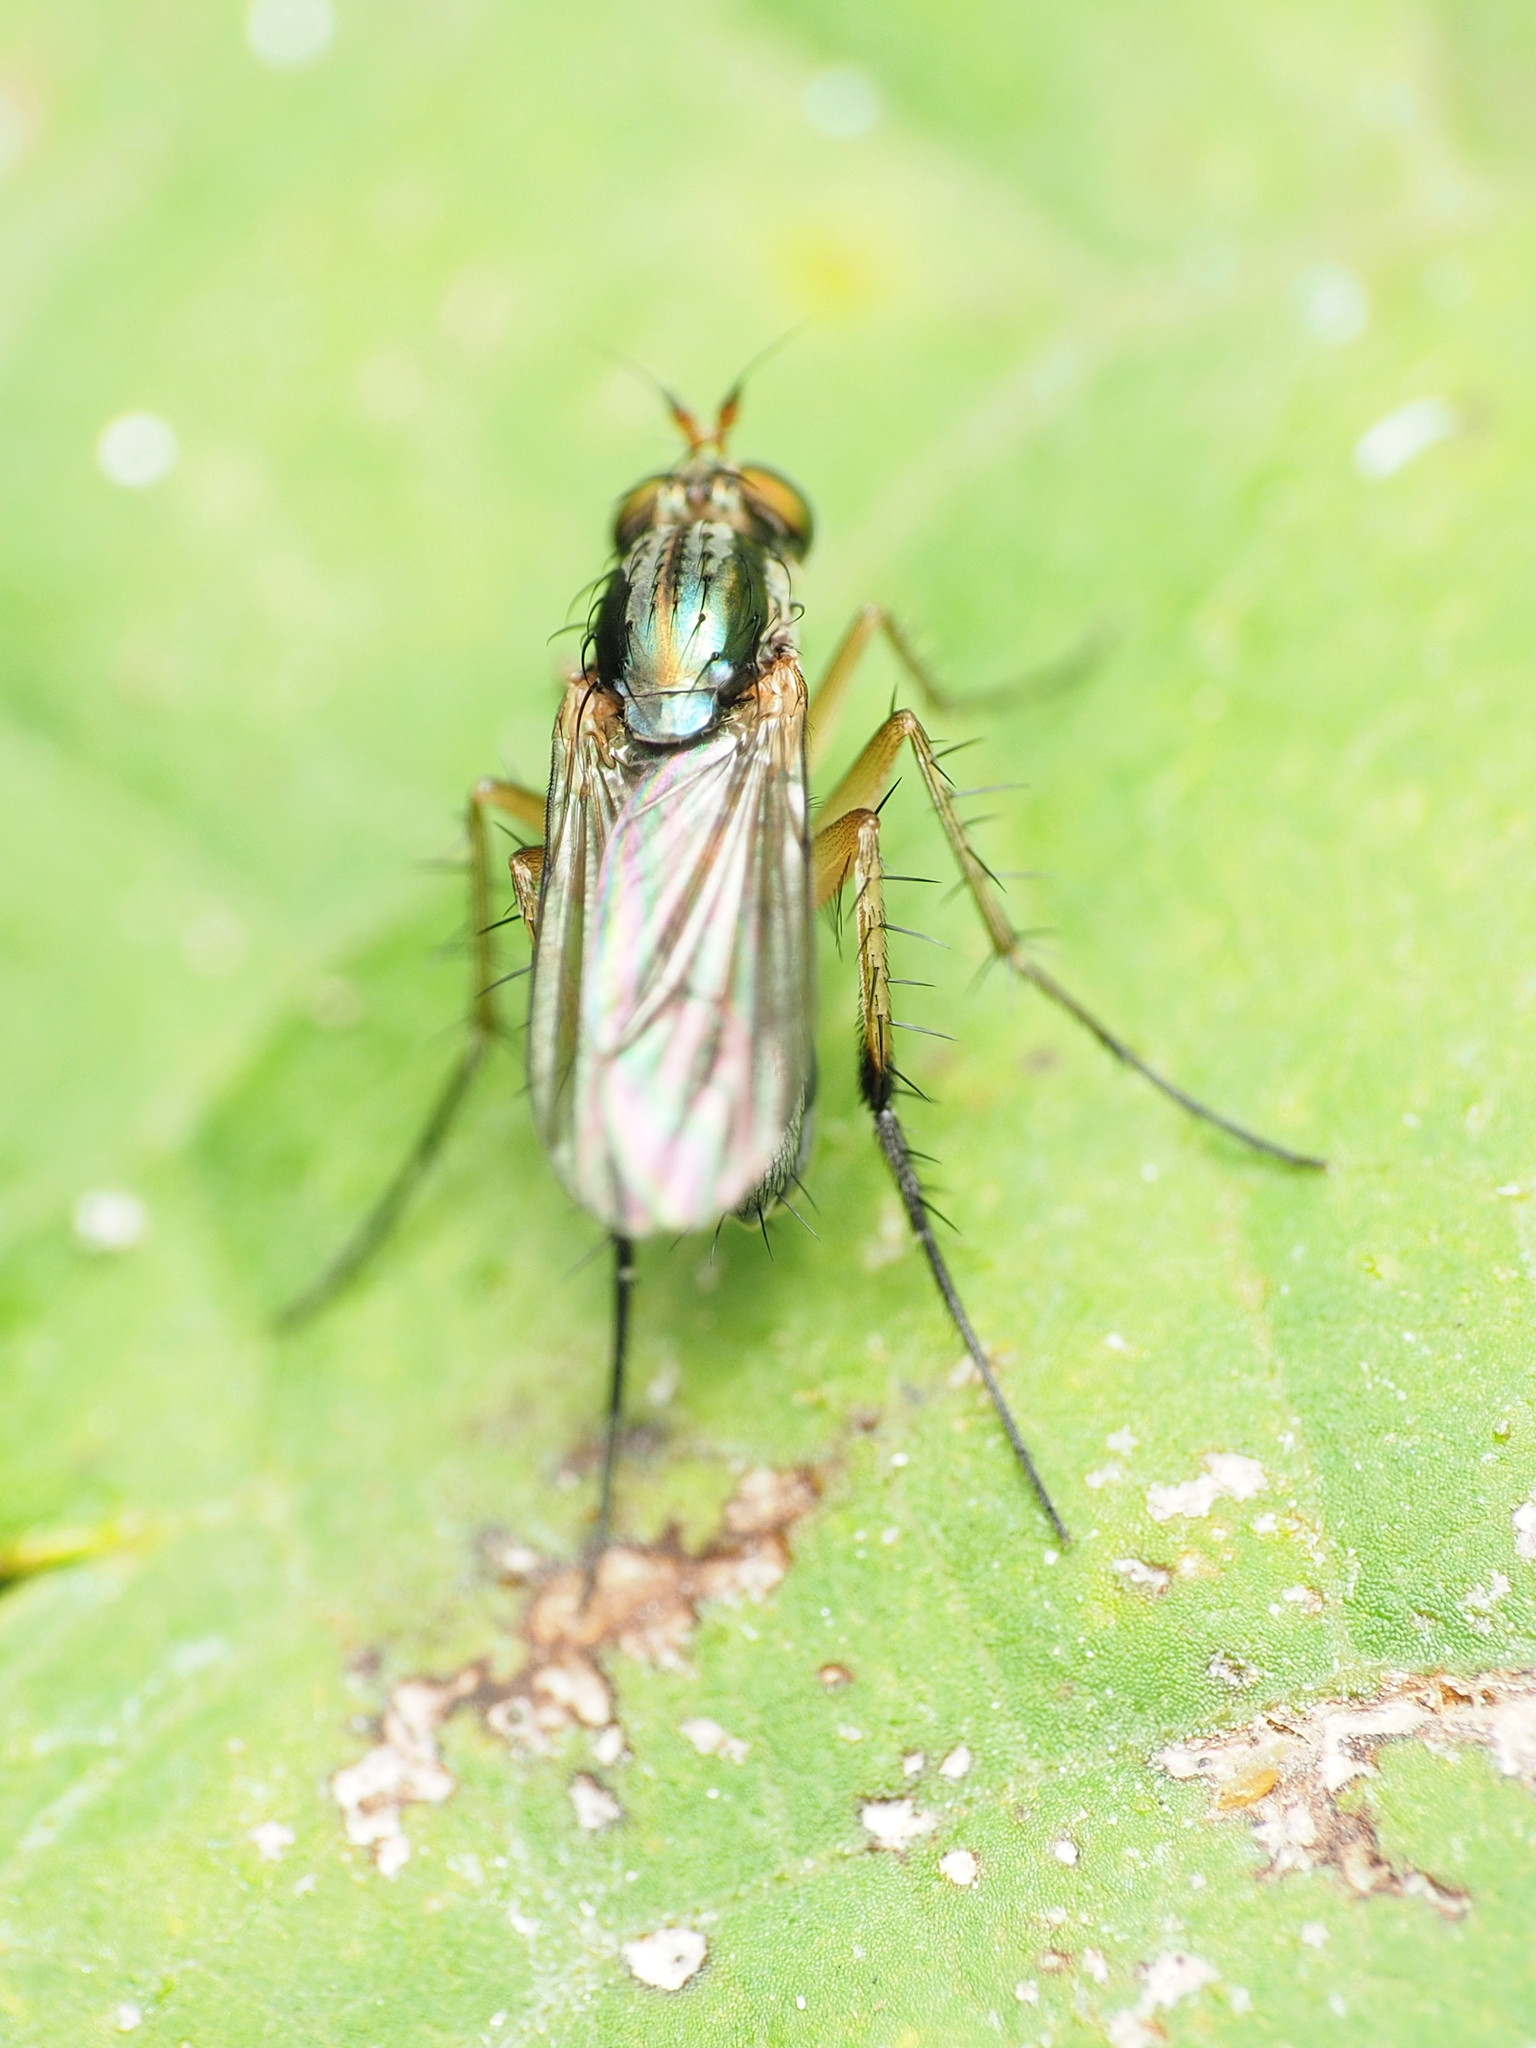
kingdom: Animalia
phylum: Arthropoda
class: Insecta
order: Diptera
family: Dolichopodidae
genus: Dolichopus
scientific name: Dolichopus reflectus
